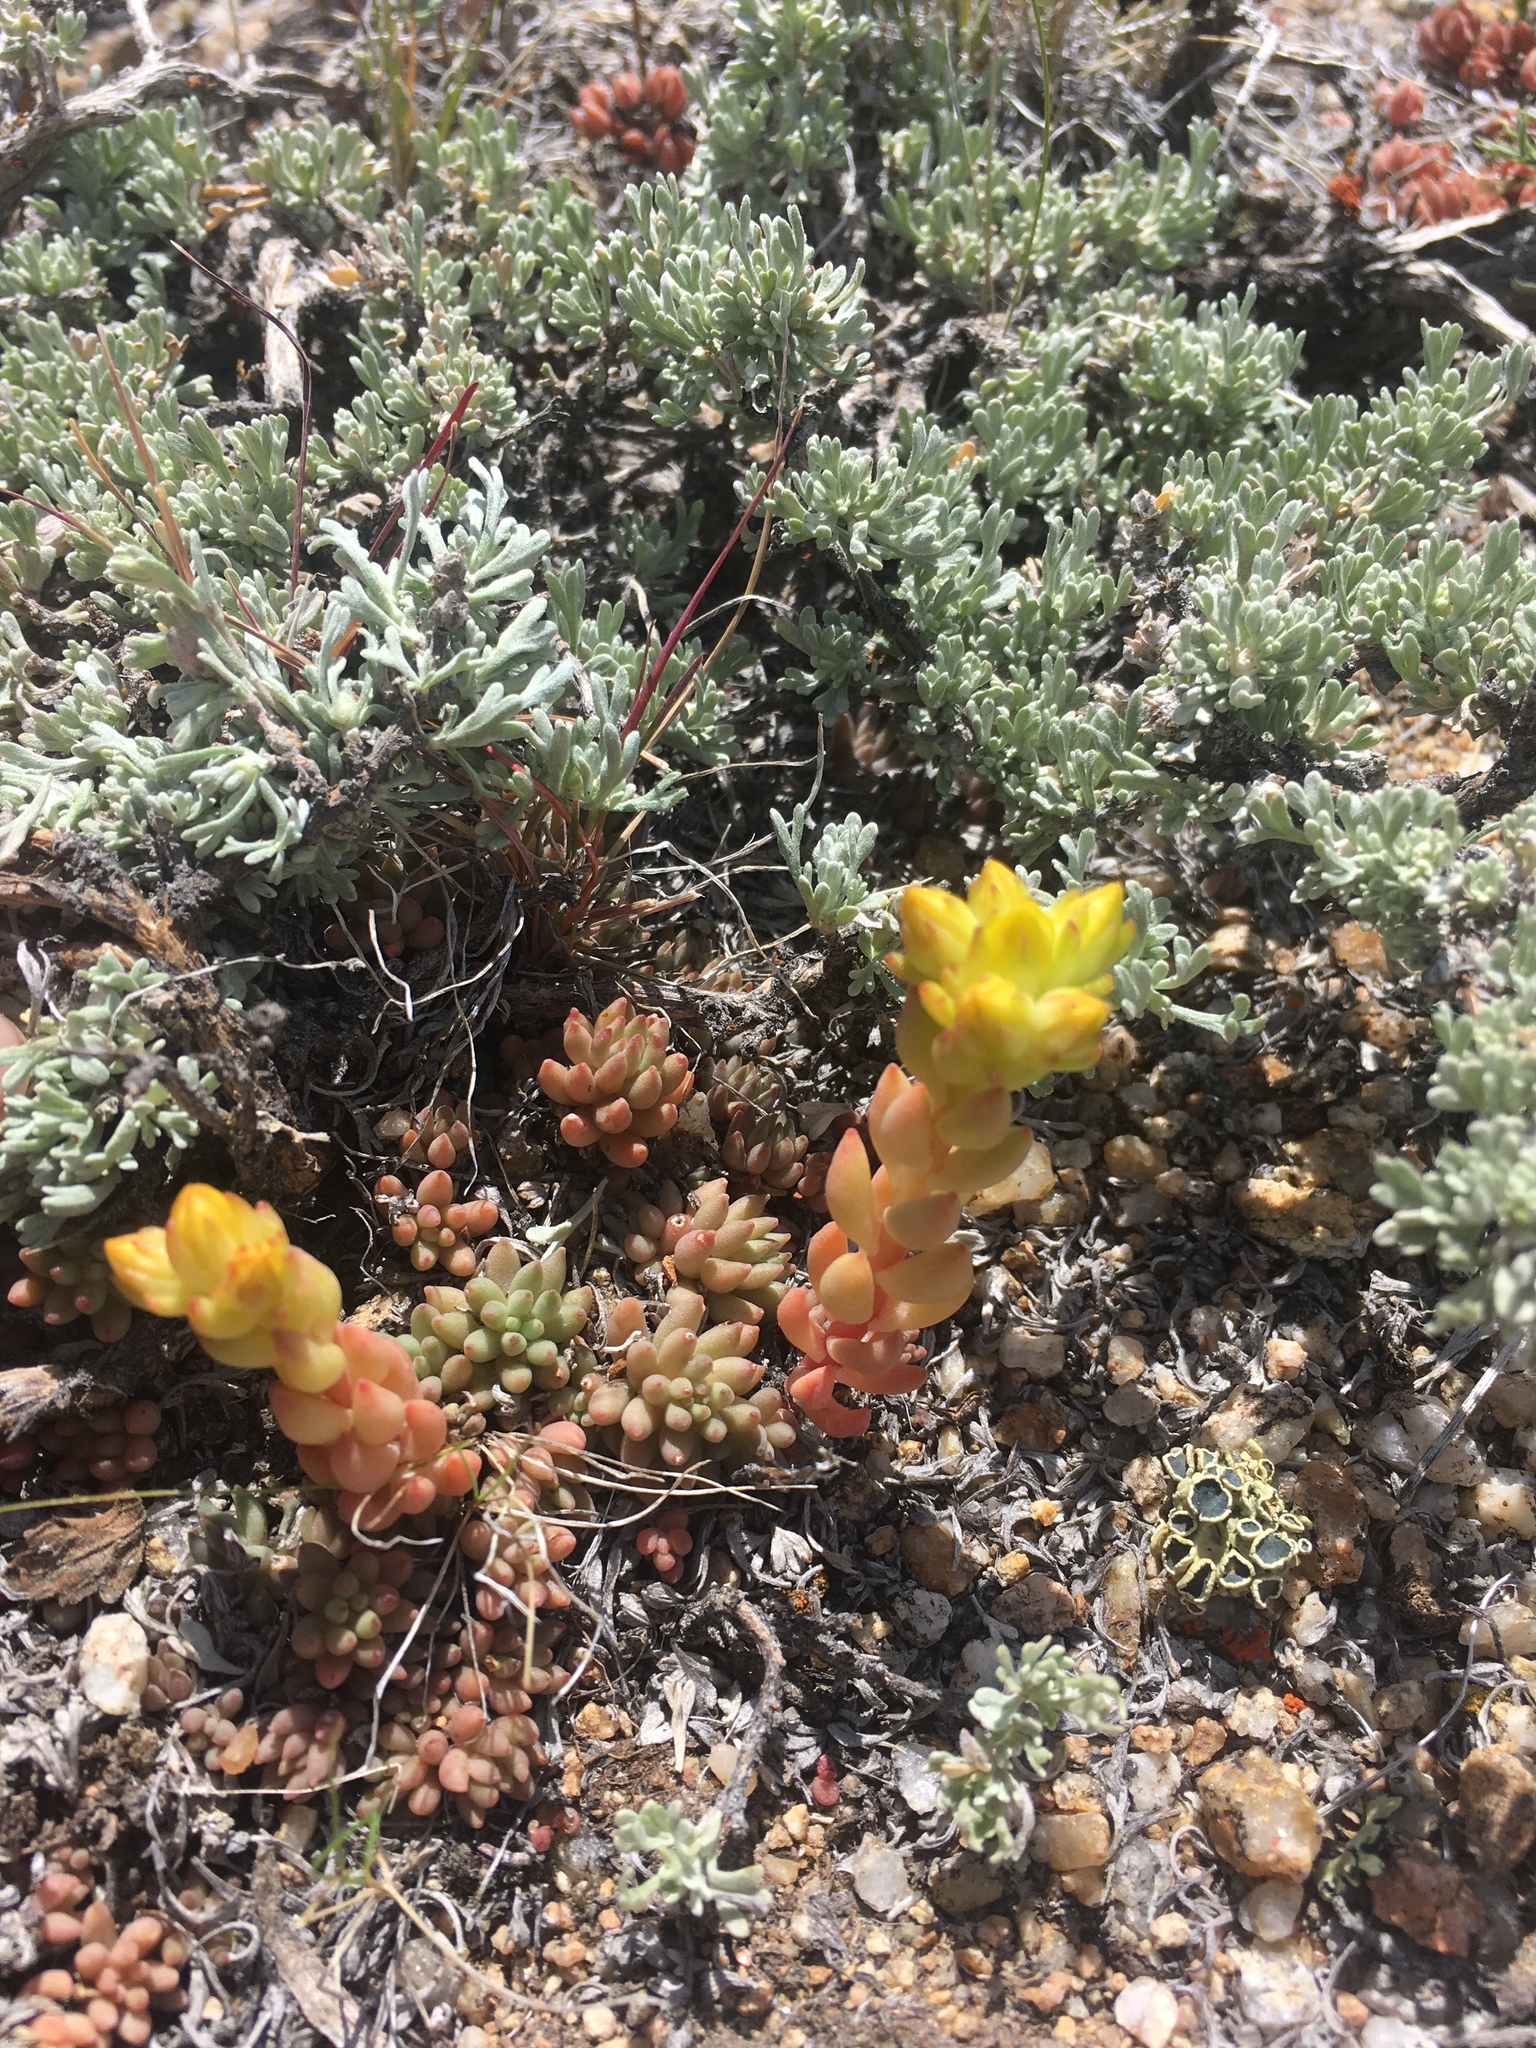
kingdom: Plantae
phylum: Tracheophyta
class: Magnoliopsida
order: Saxifragales
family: Crassulaceae
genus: Sedum
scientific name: Sedum lanceolatum
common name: Common stonecrop
